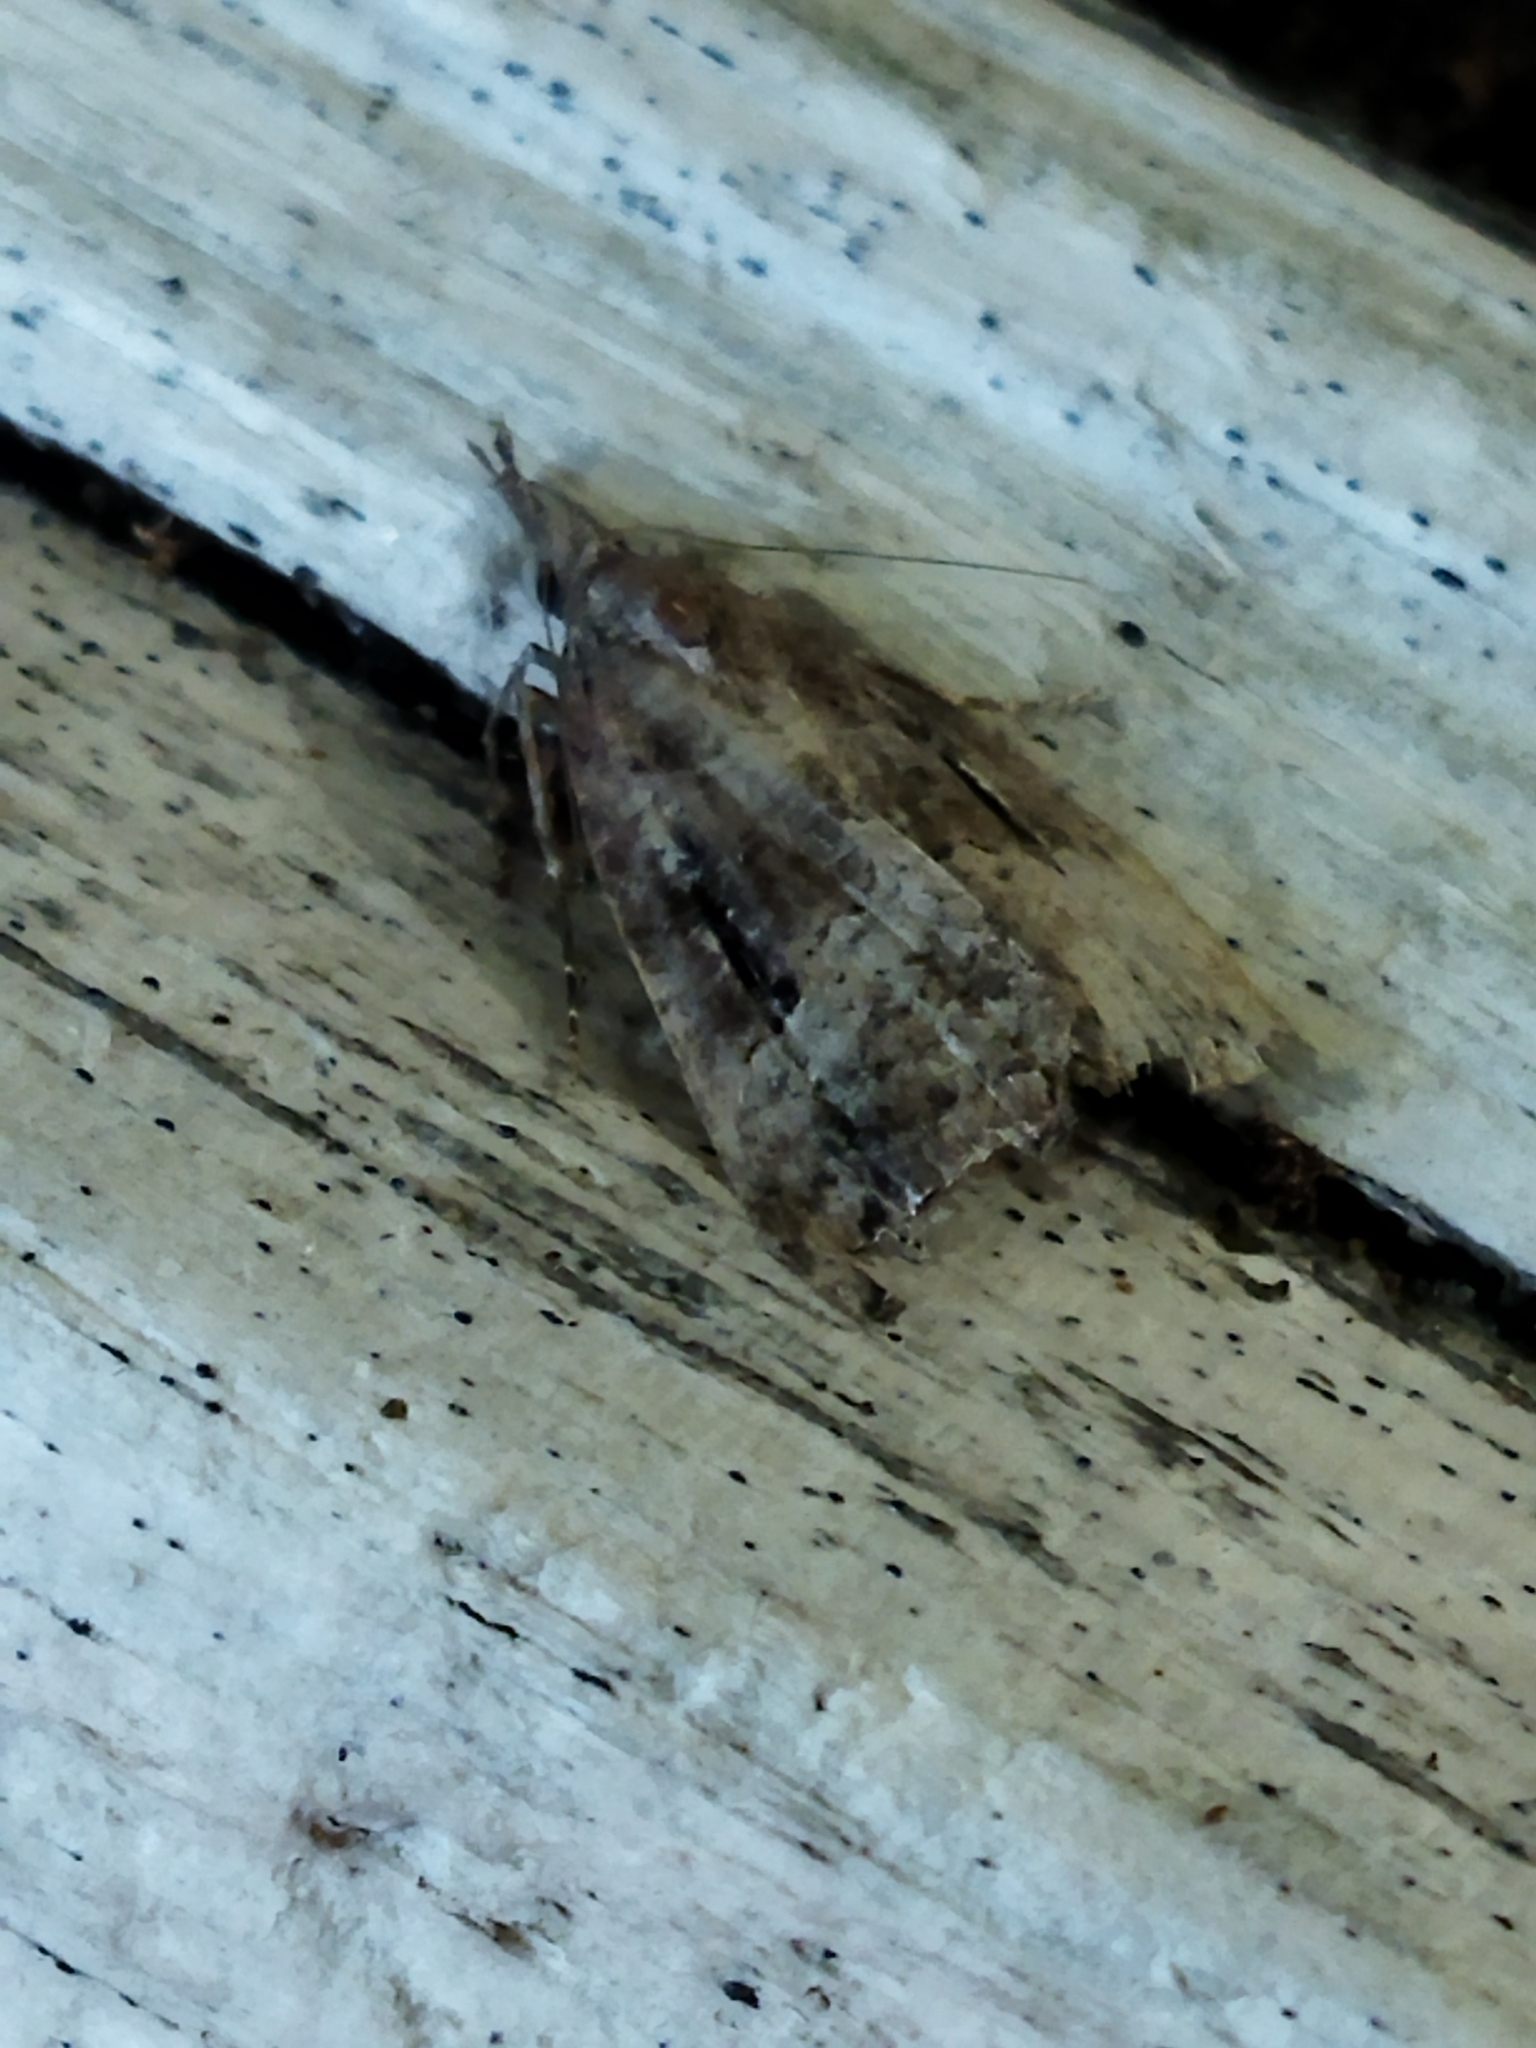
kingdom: Animalia
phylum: Arthropoda
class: Insecta
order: Lepidoptera
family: Erebidae
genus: Hypena
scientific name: Hypena rostralis
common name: Buttoned snout
